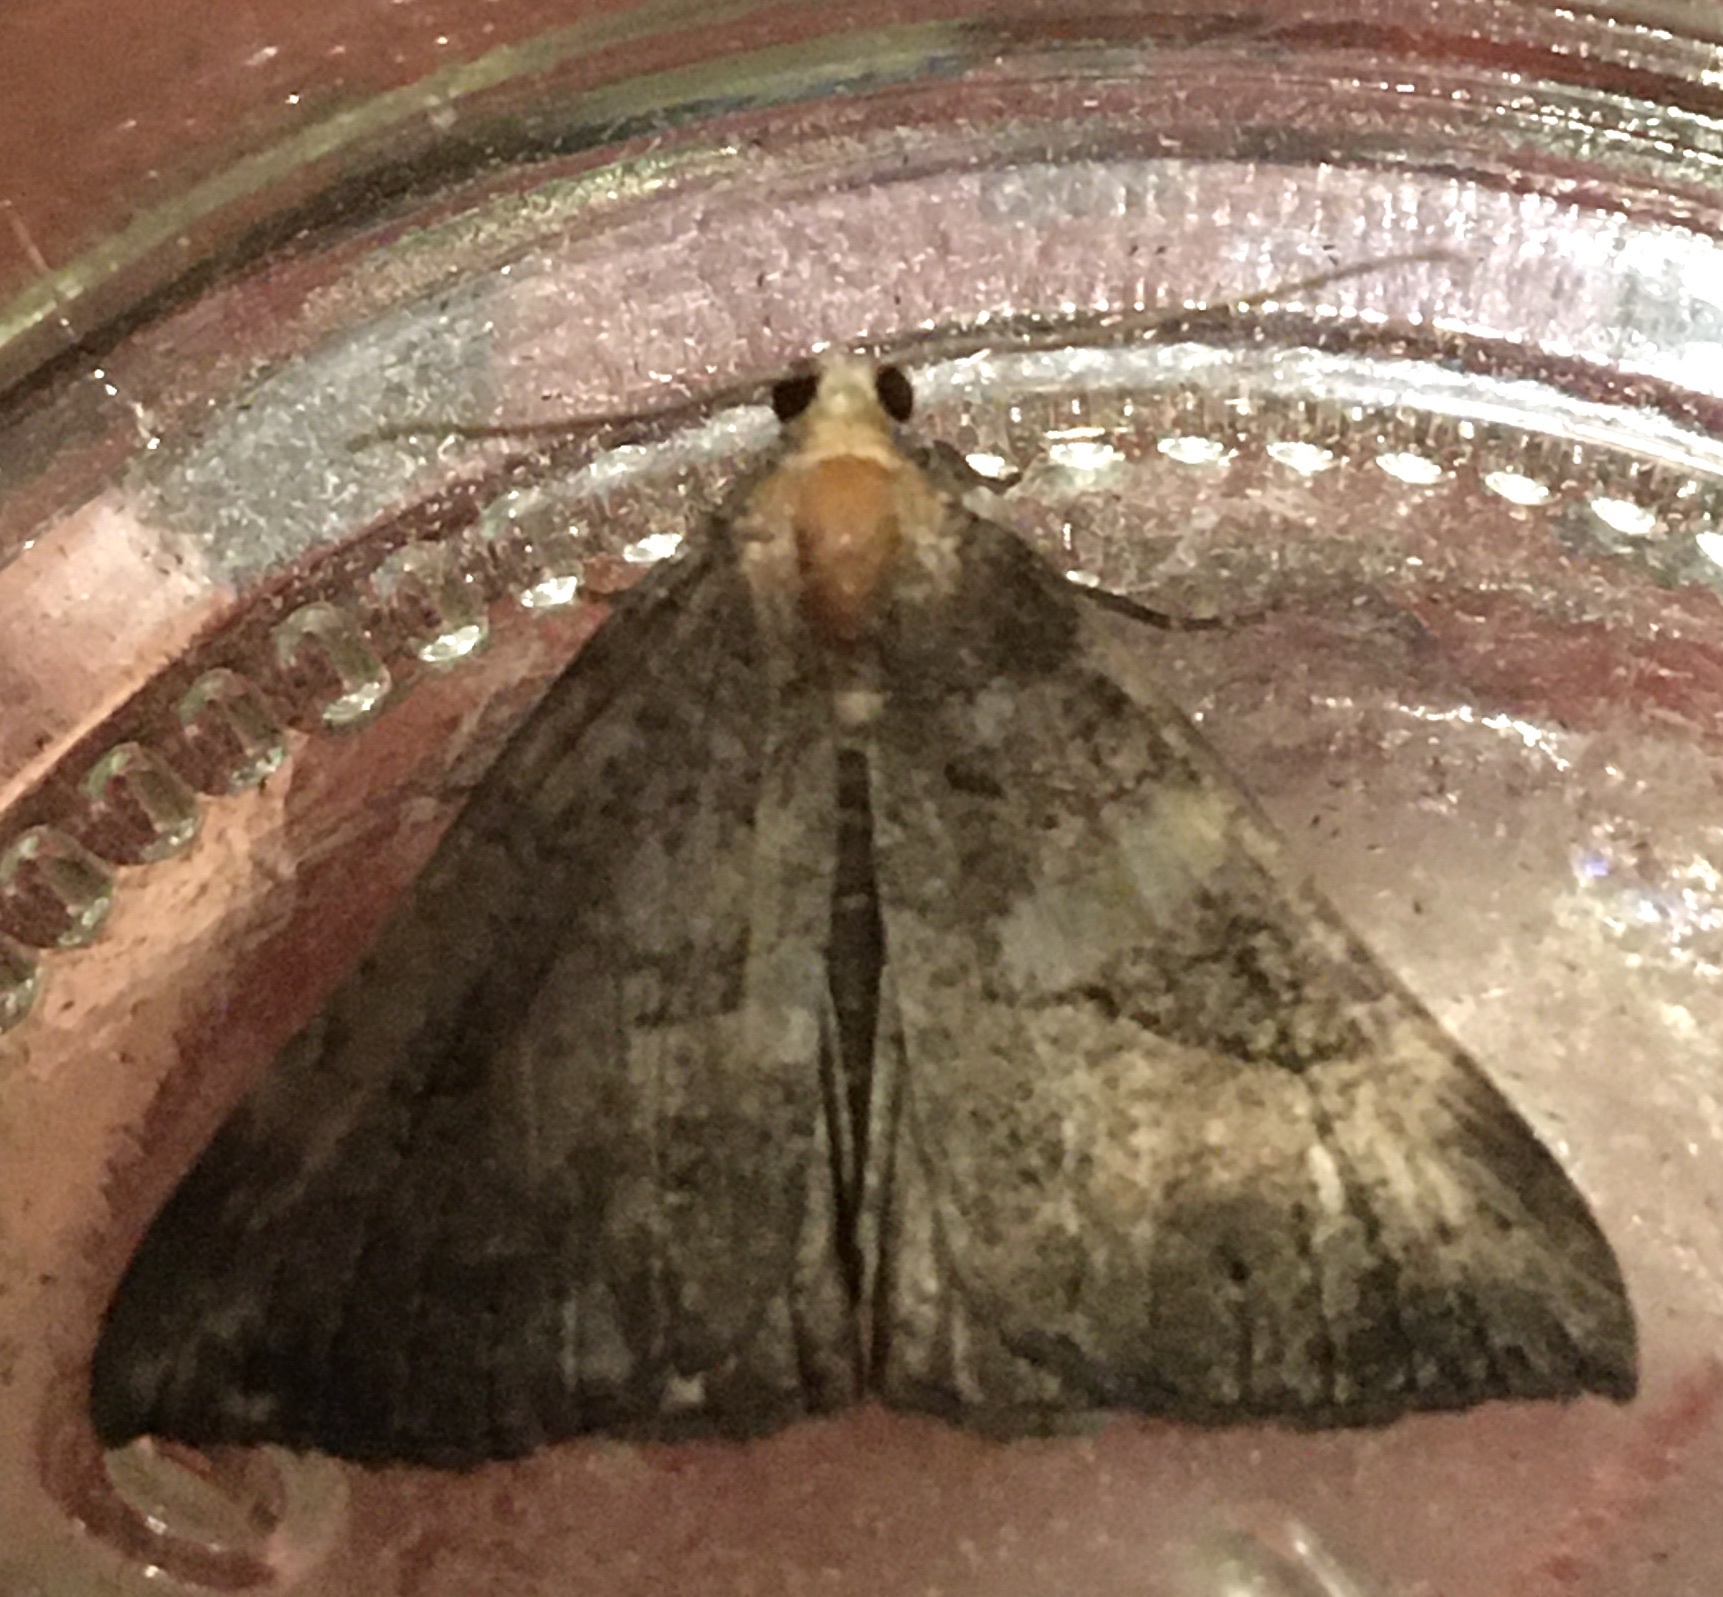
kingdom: Animalia
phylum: Arthropoda
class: Insecta
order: Lepidoptera
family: Erebidae
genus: Hypena
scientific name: Hypena proboscidalis
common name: Snout
